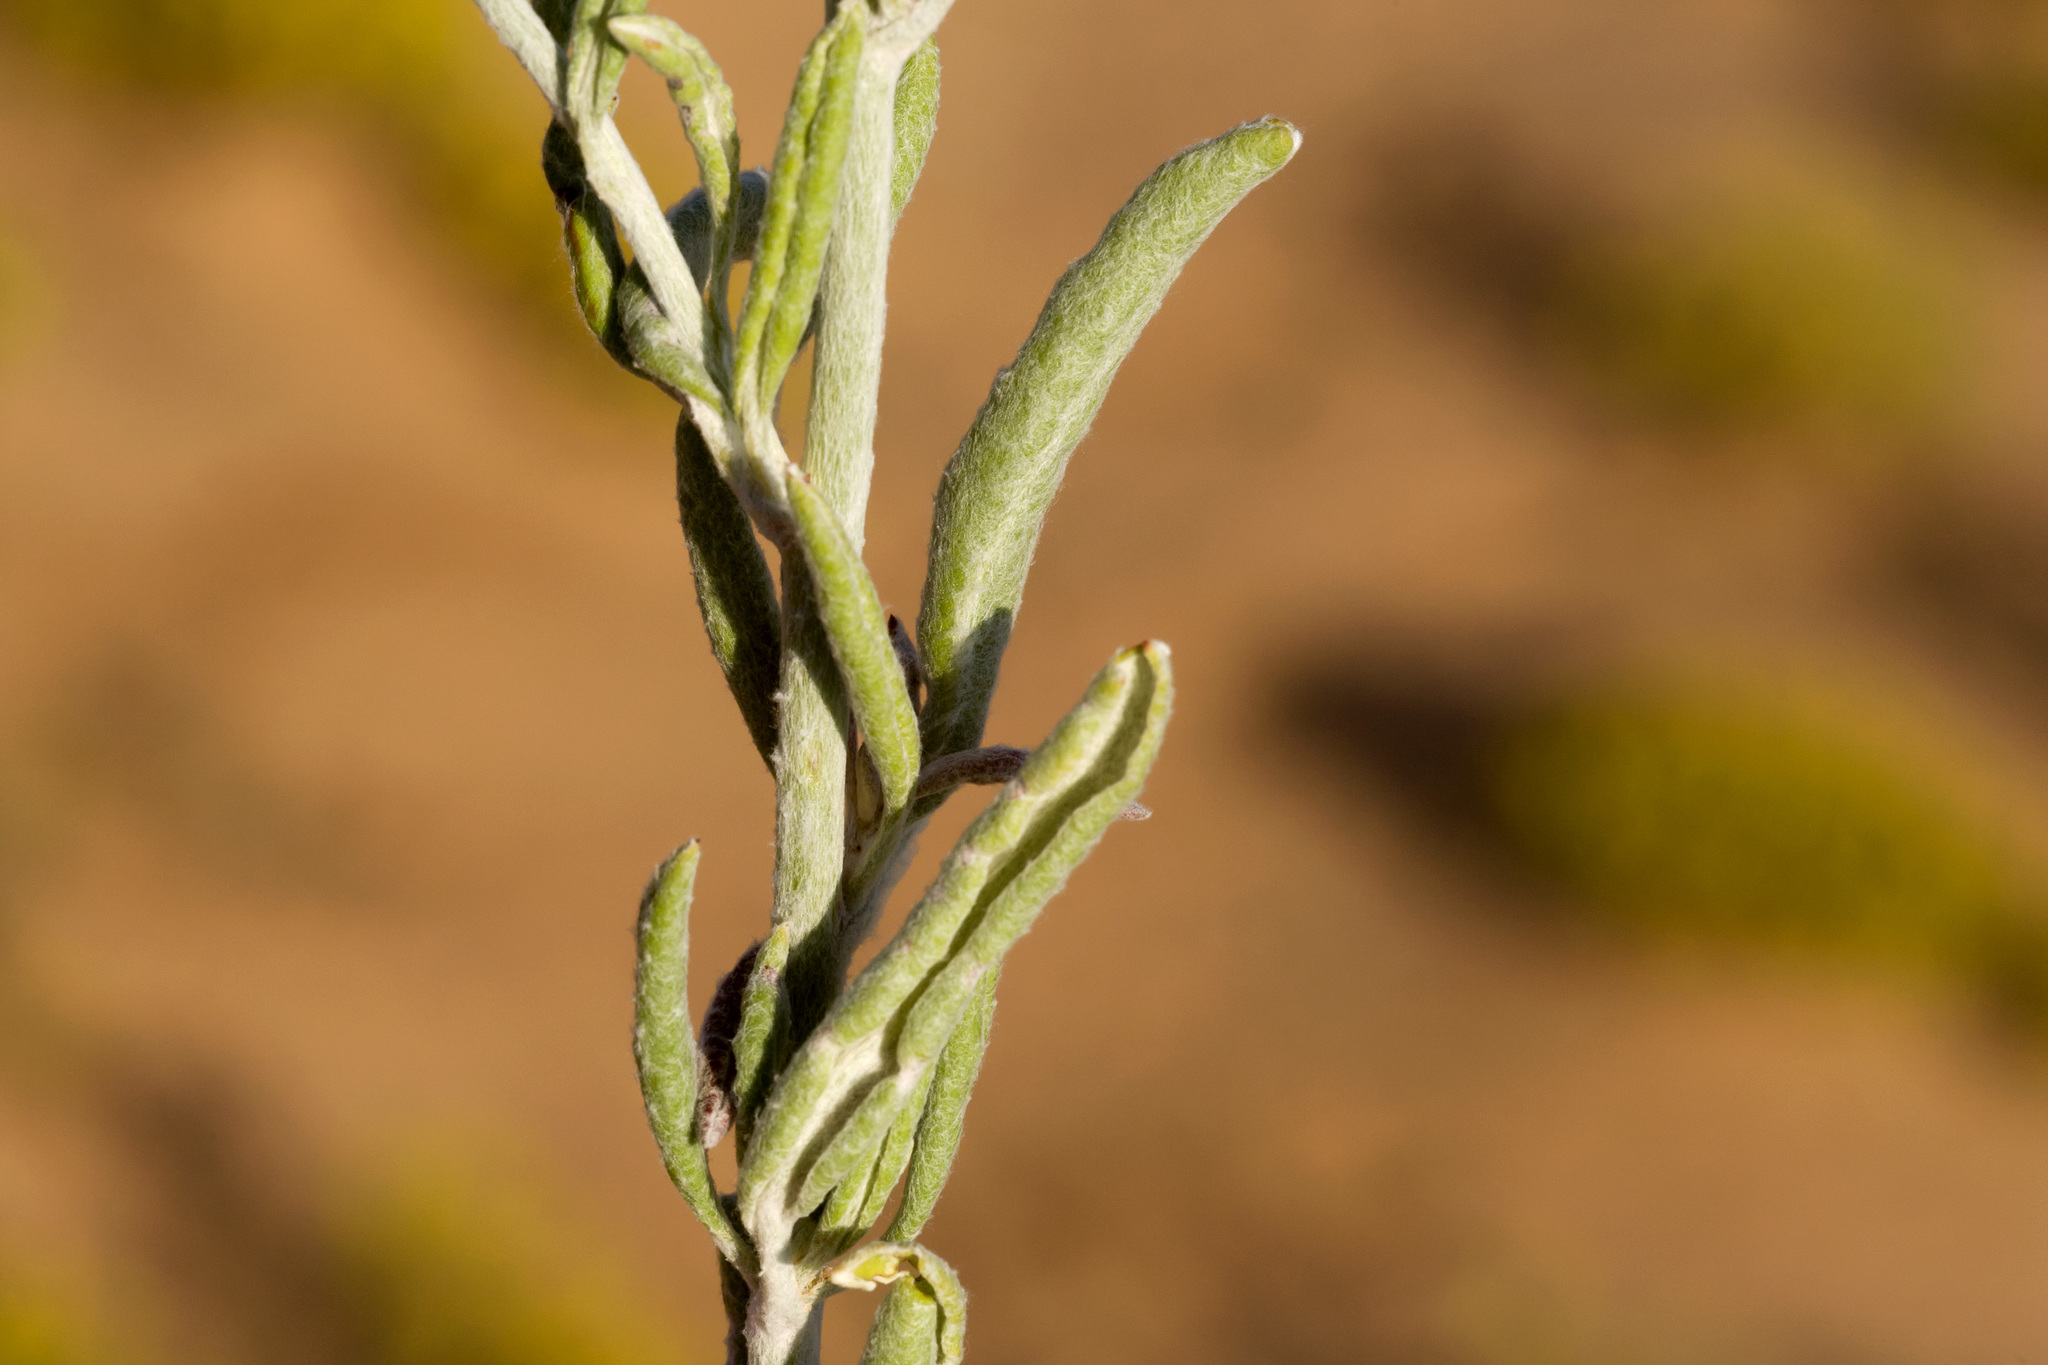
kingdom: Plantae
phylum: Tracheophyta
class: Magnoliopsida
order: Caryophyllales
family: Polygonaceae
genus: Eriogonum
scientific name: Eriogonum annuum
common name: Annual wild buckwheat
